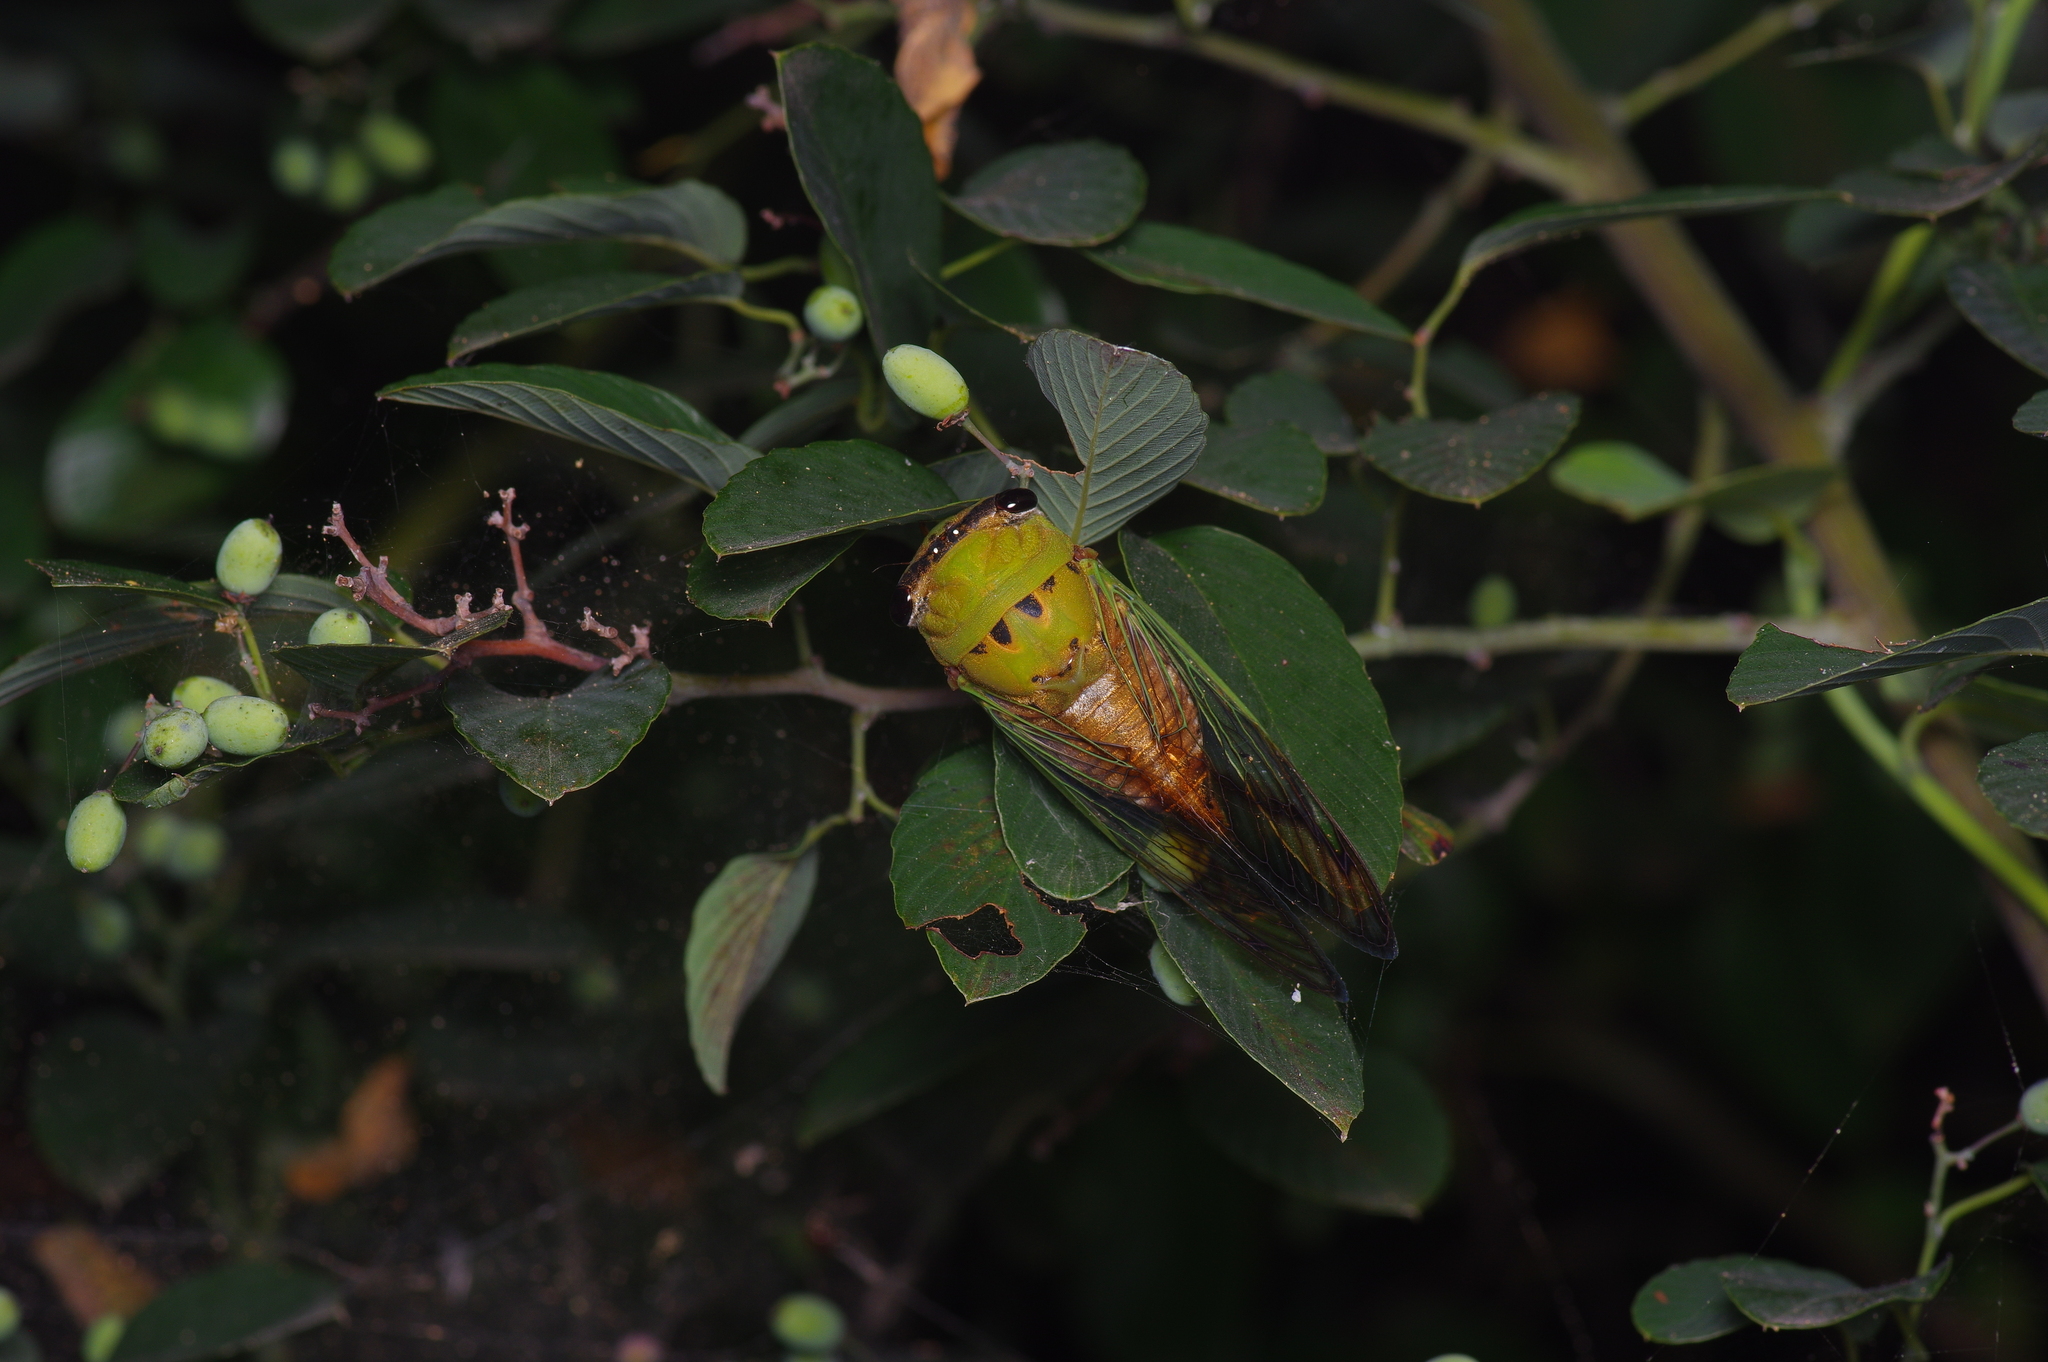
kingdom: Animalia
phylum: Arthropoda
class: Insecta
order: Hemiptera
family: Cicadidae
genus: Neotibicen
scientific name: Neotibicen superbus
